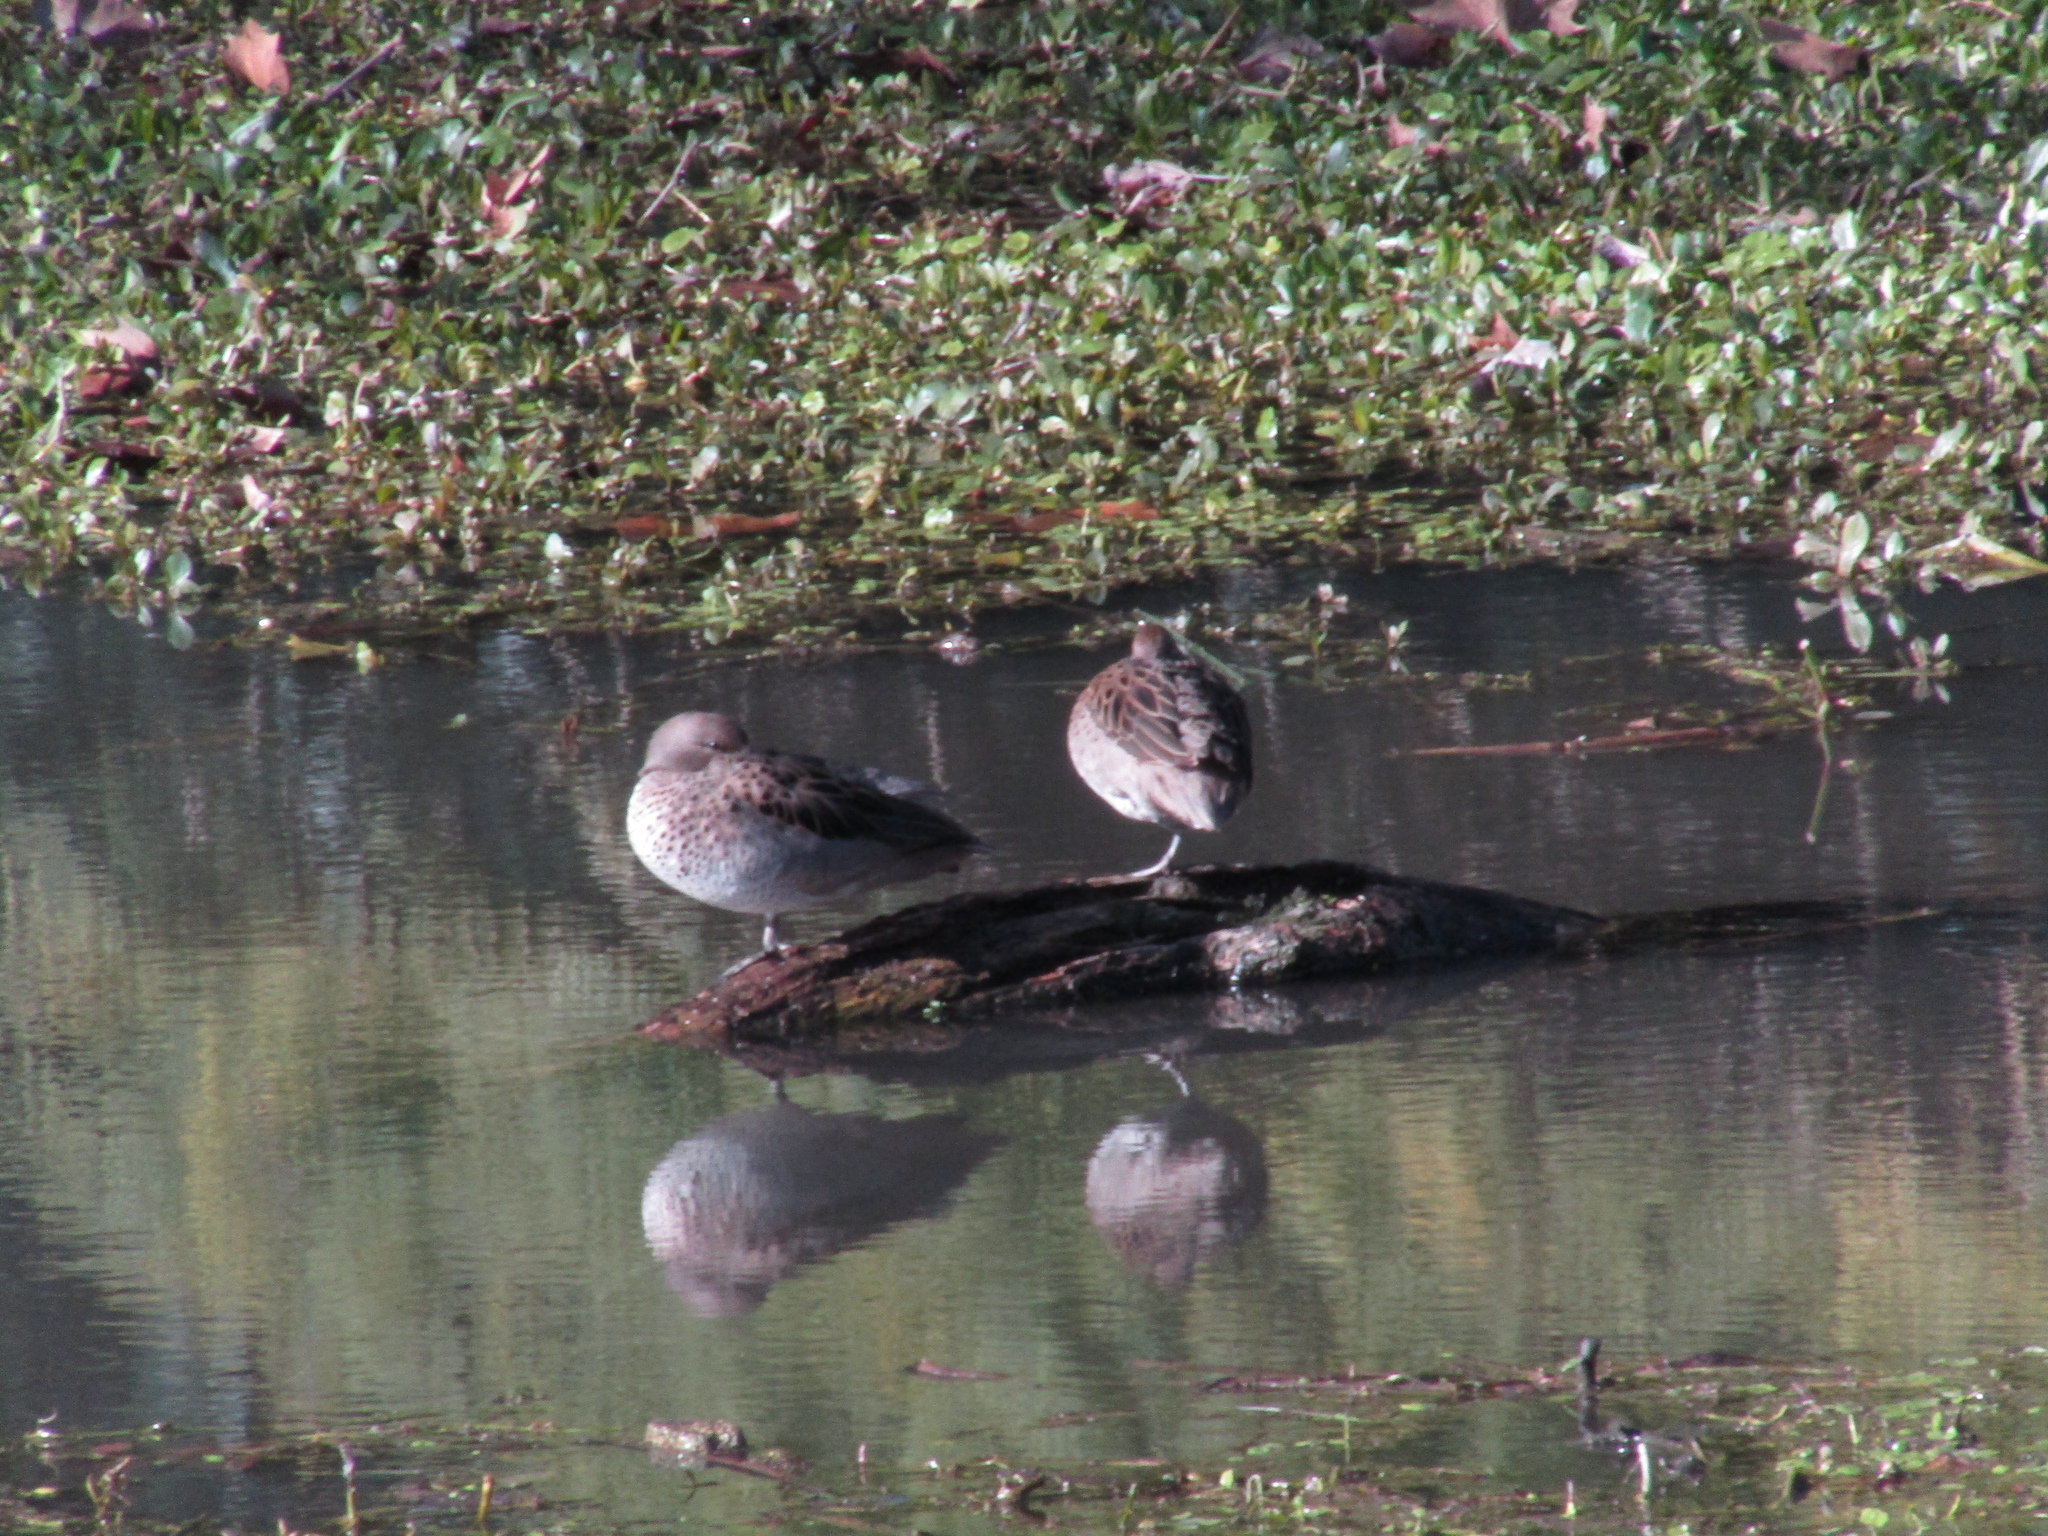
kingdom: Animalia
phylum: Chordata
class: Aves
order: Anseriformes
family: Anatidae
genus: Anas
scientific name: Anas flavirostris
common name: Yellow-billed teal
